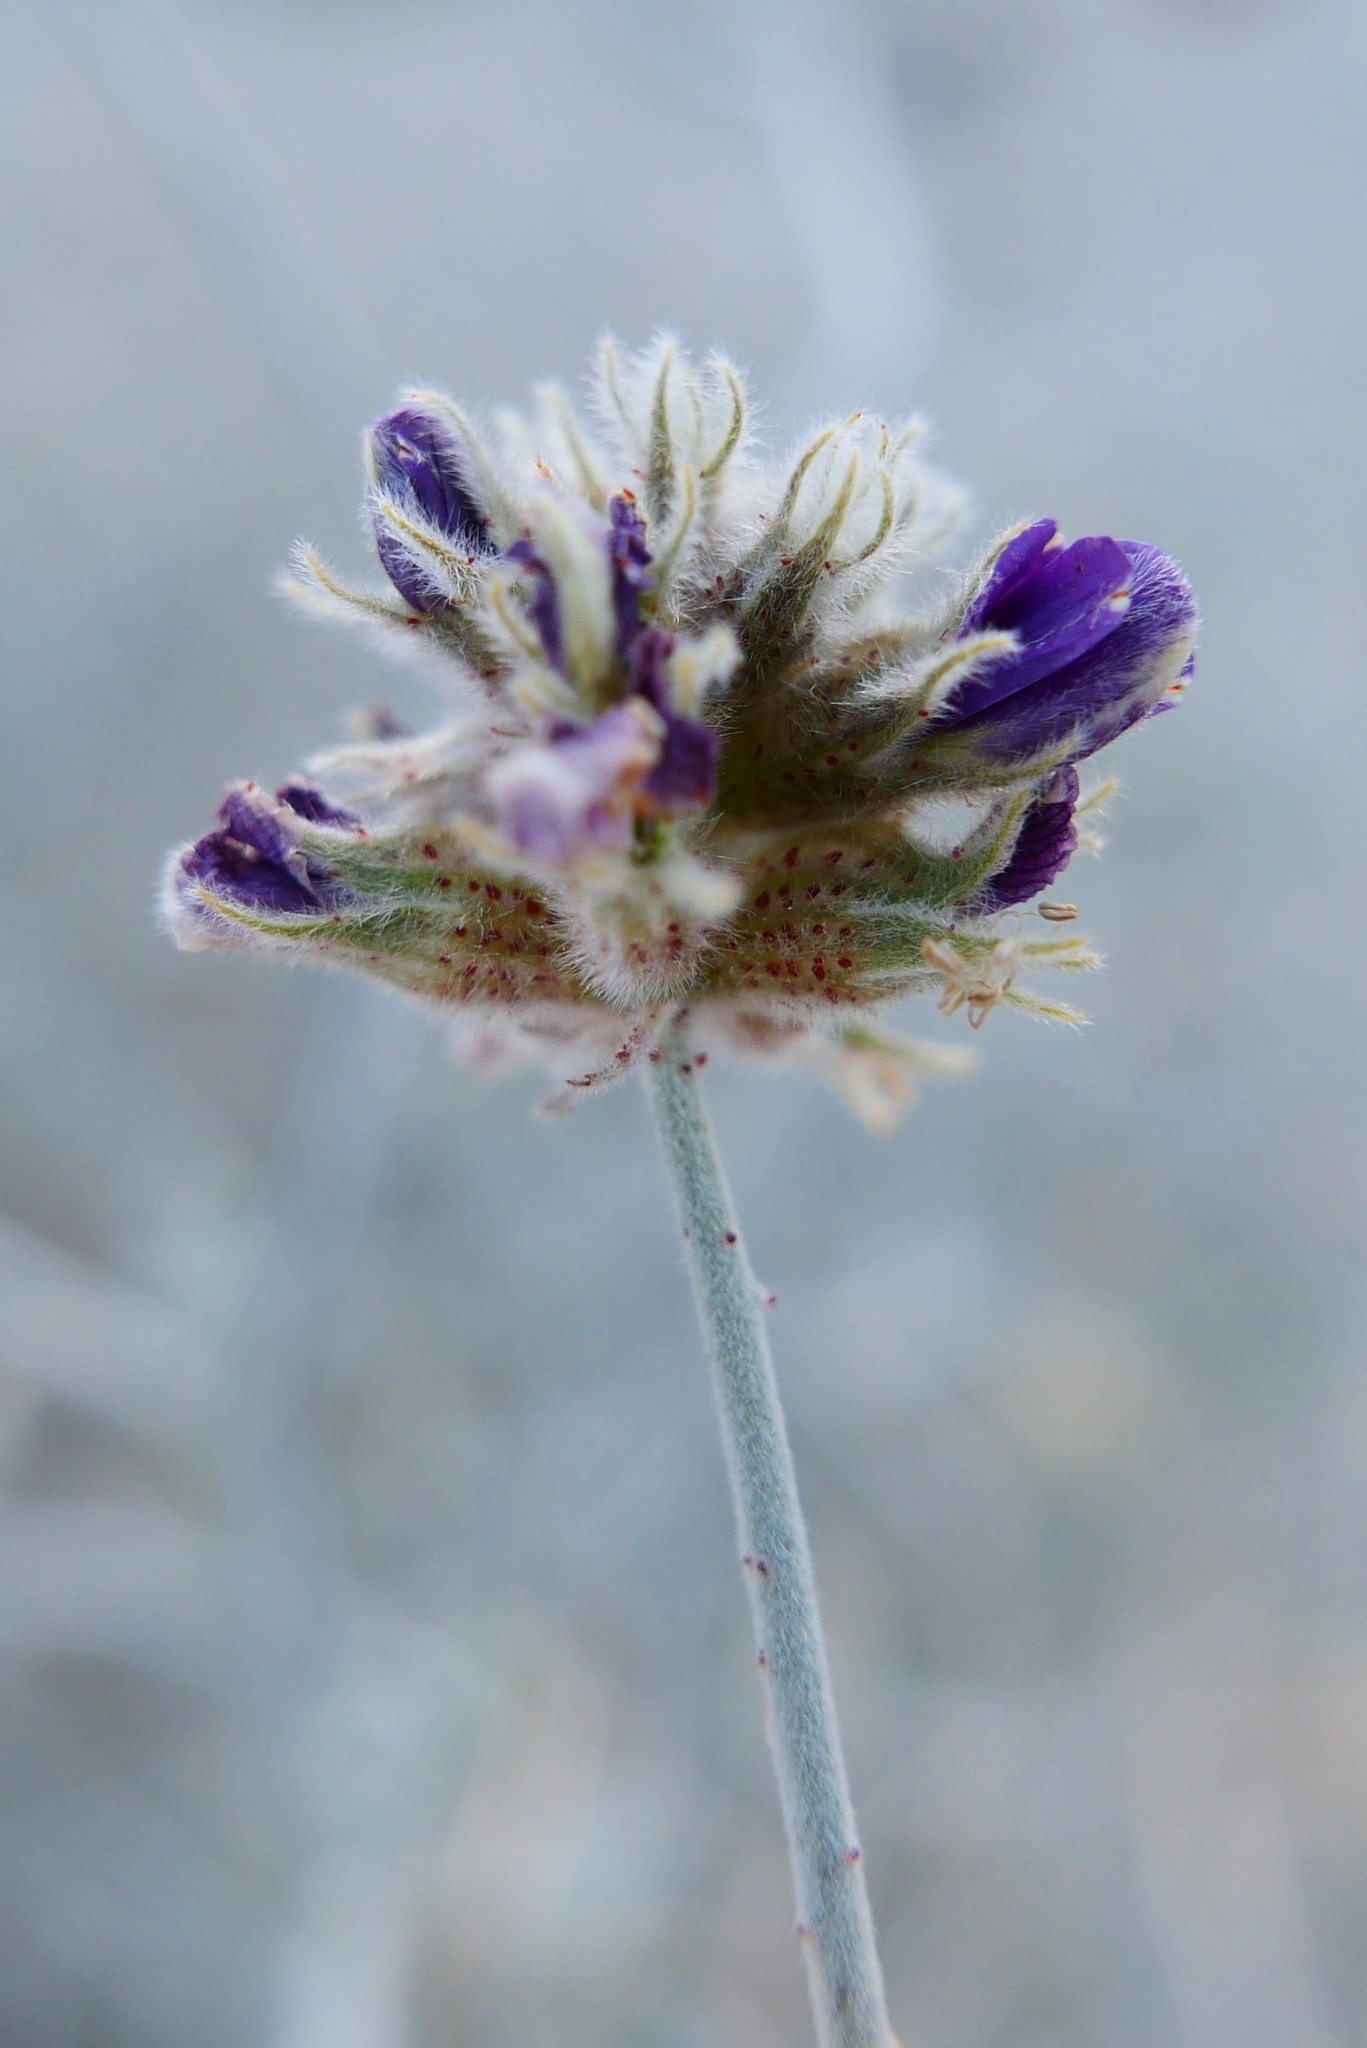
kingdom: Plantae
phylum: Tracheophyta
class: Magnoliopsida
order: Fabales
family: Fabaceae
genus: Psorothamnus
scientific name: Psorothamnus emoryi
